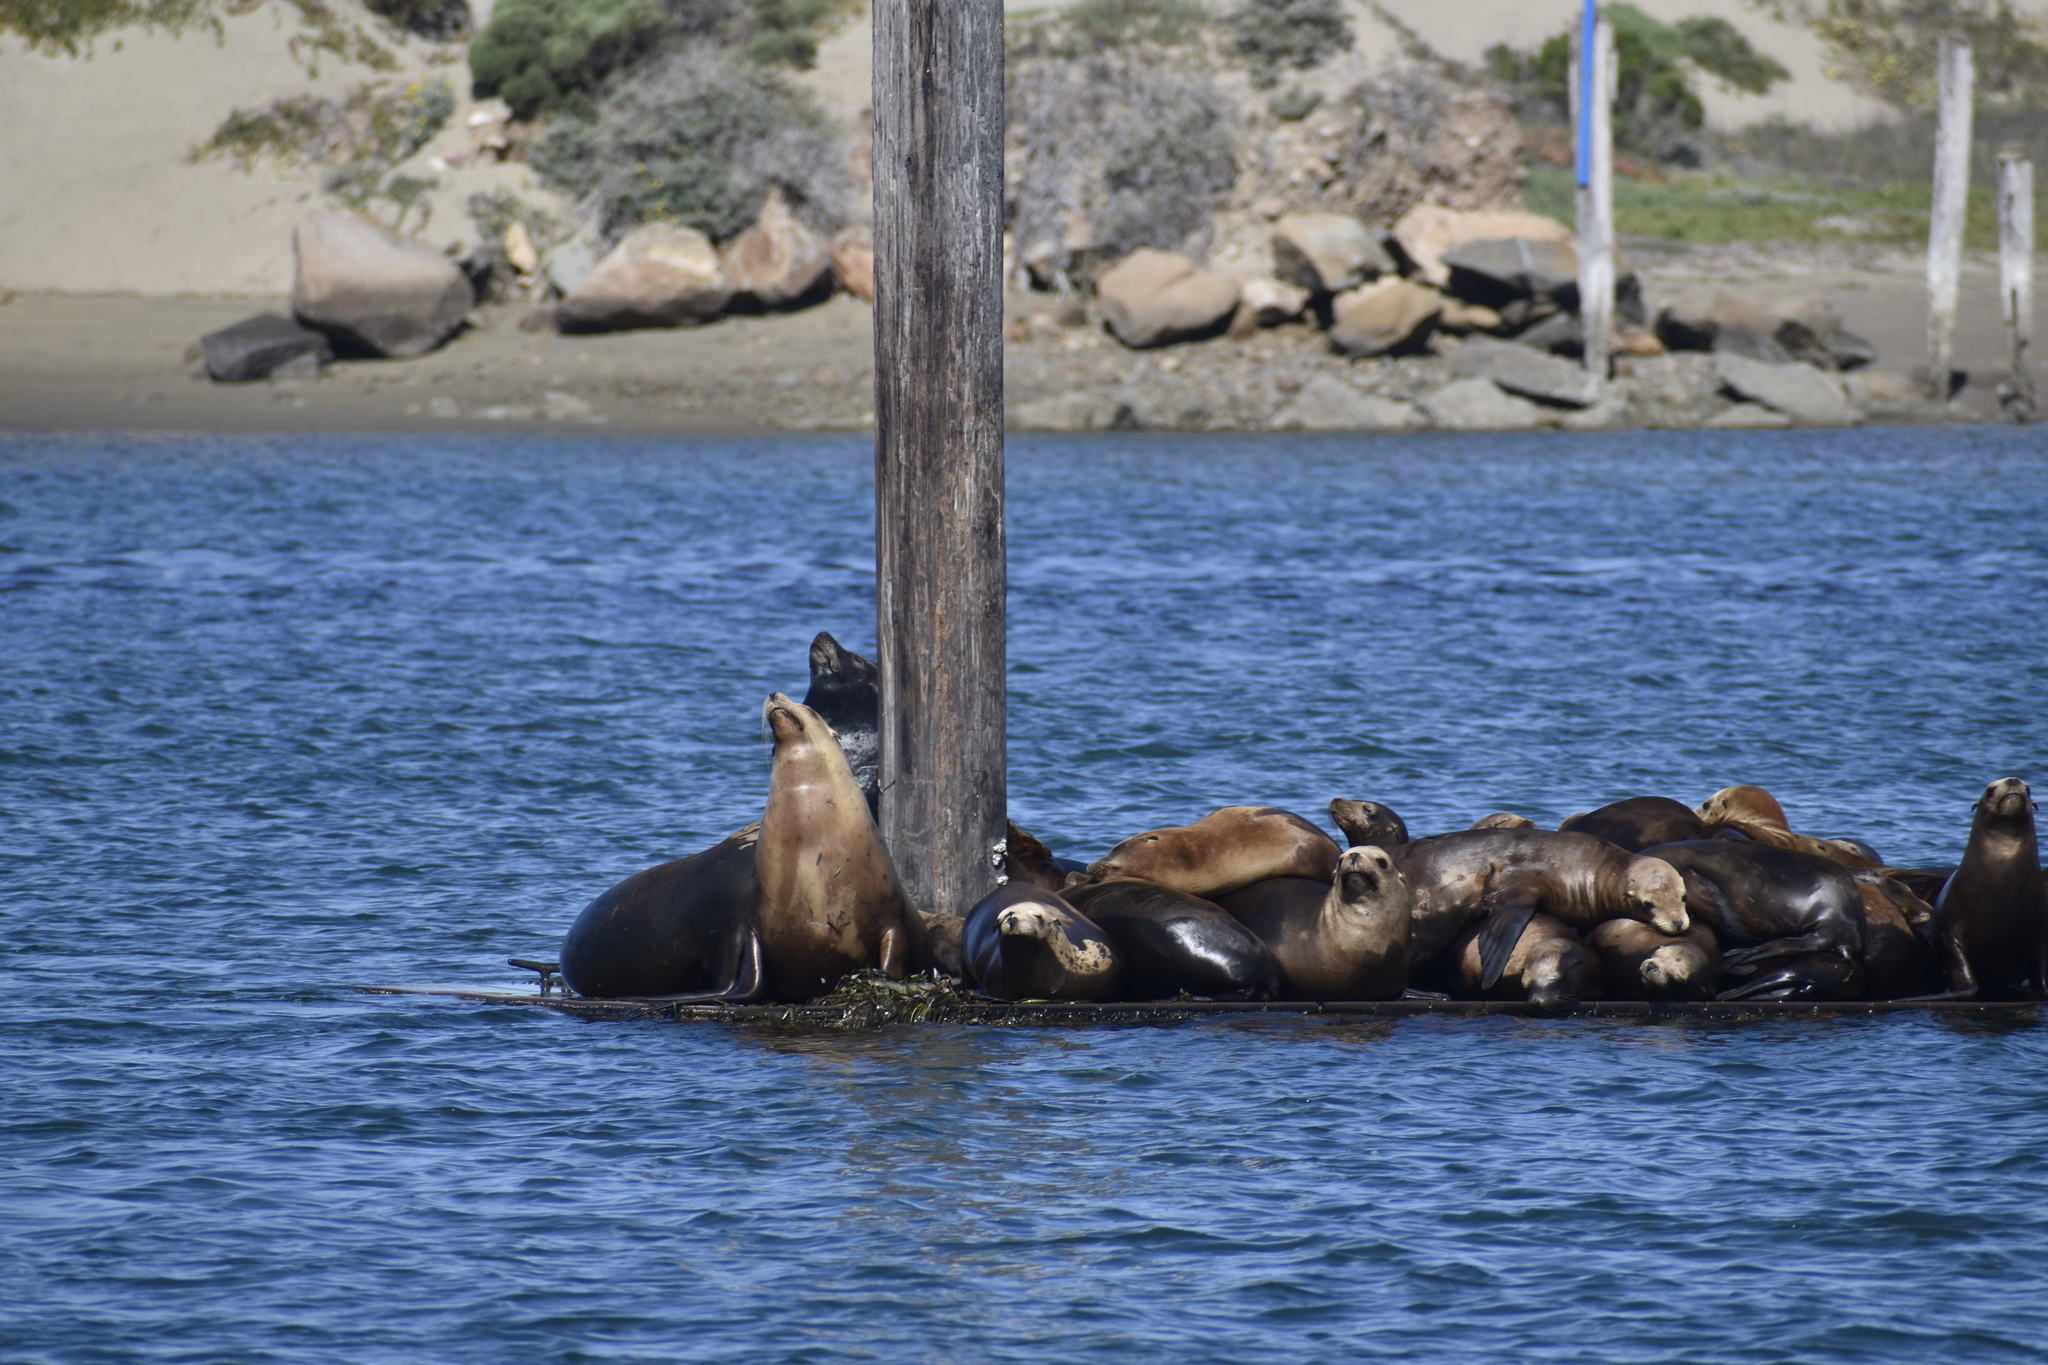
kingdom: Animalia
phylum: Chordata
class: Mammalia
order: Carnivora
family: Otariidae
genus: Zalophus
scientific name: Zalophus californianus
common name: California sea lion
